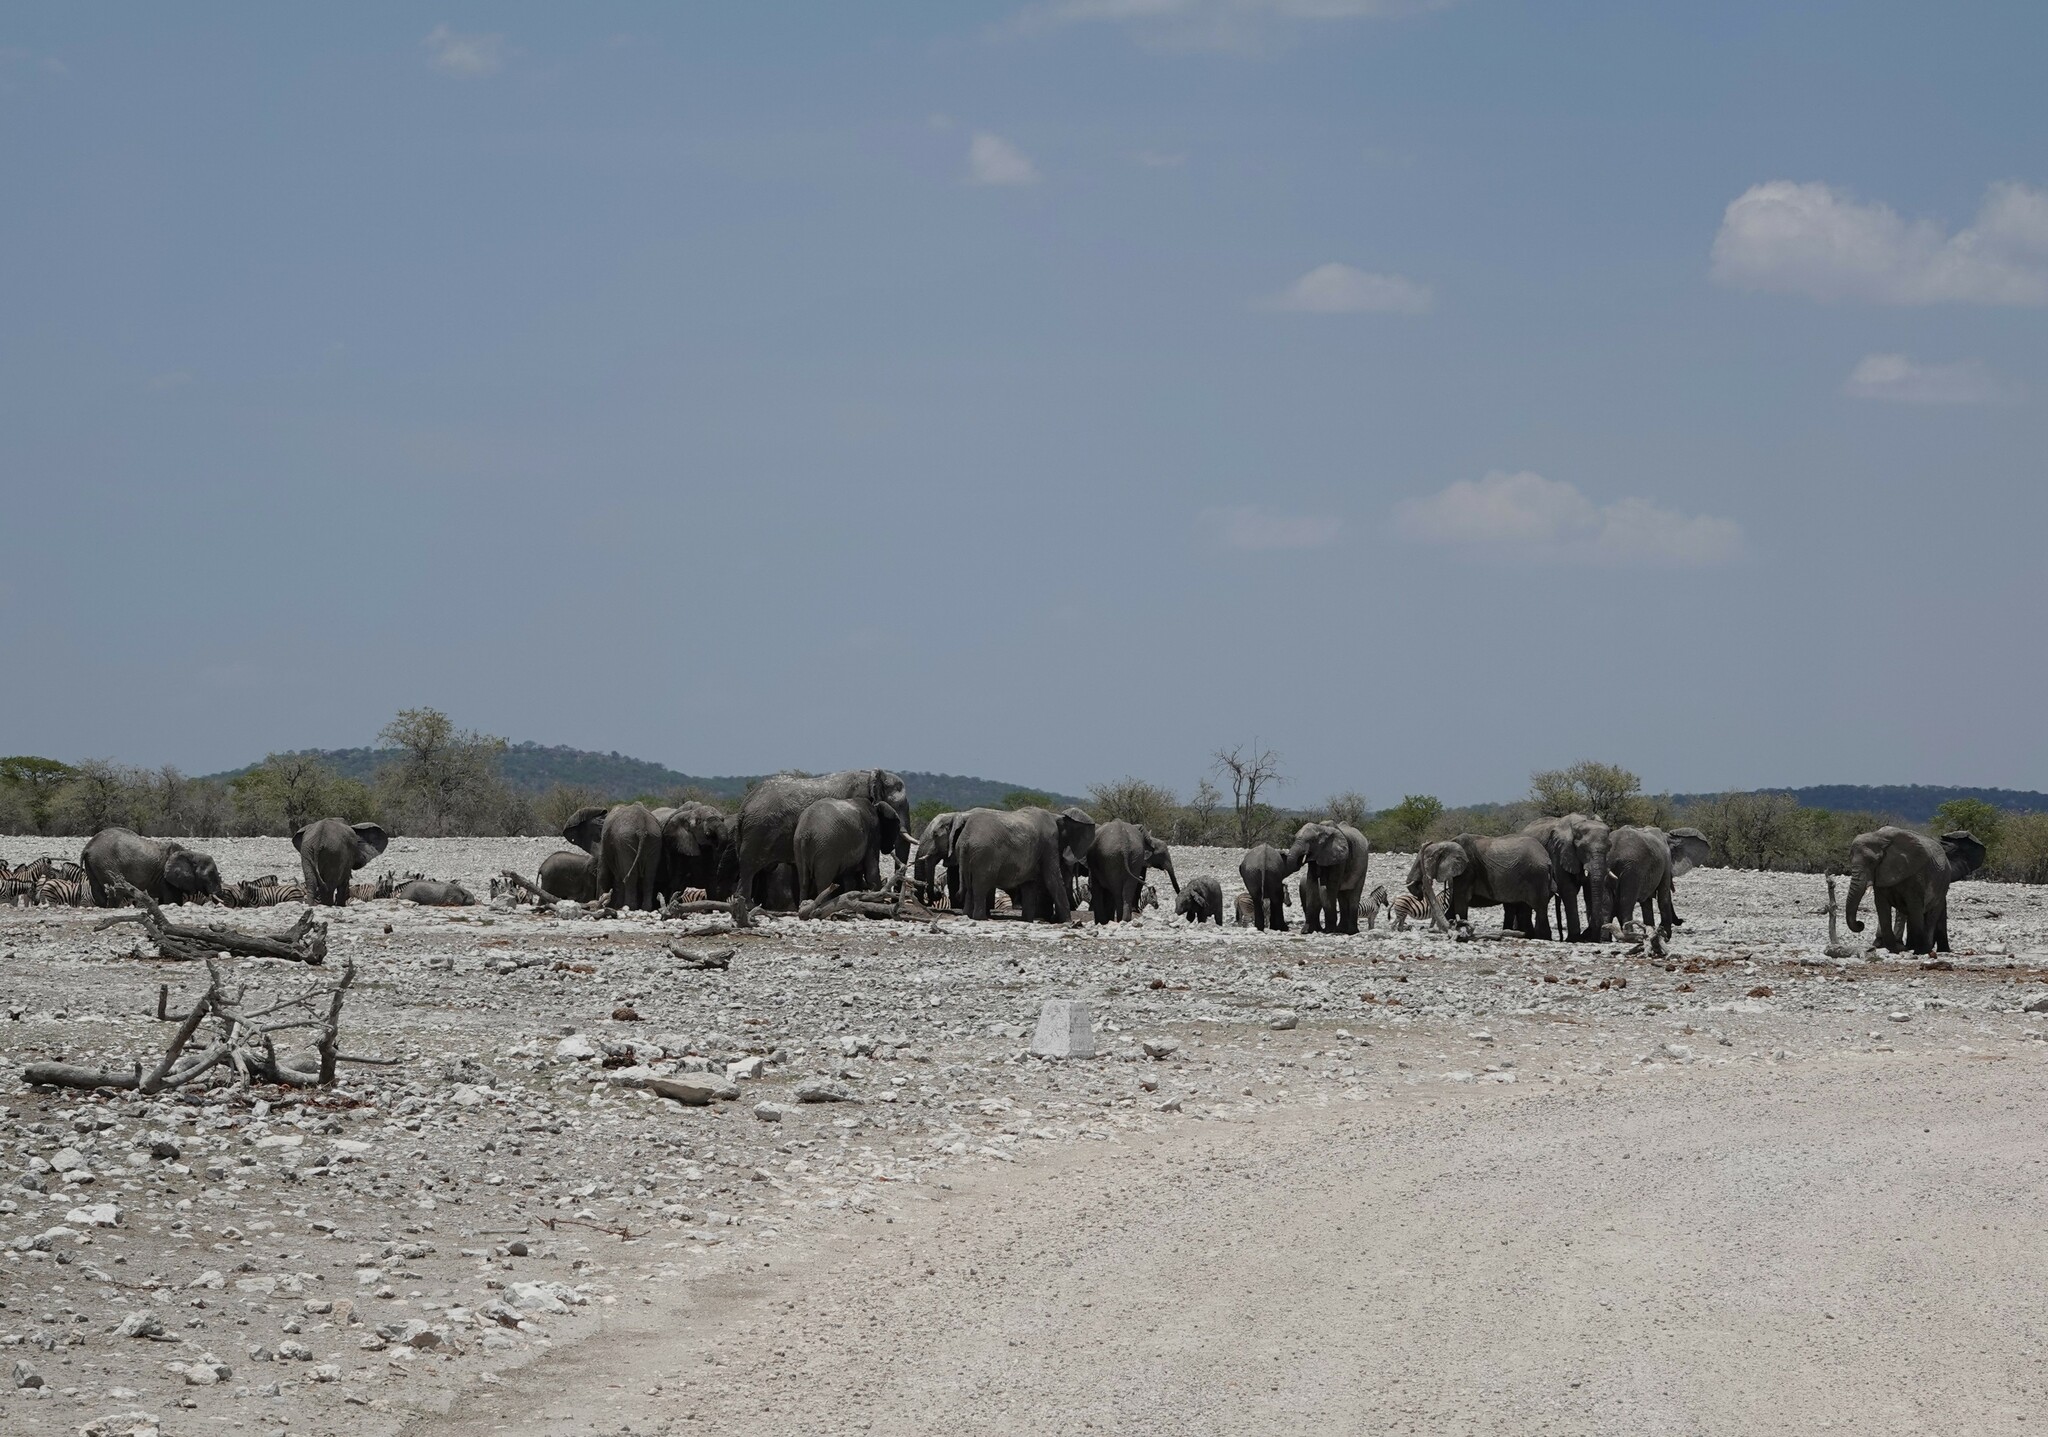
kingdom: Animalia
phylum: Chordata
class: Mammalia
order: Proboscidea
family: Elephantidae
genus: Loxodonta
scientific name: Loxodonta africana
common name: African elephant
